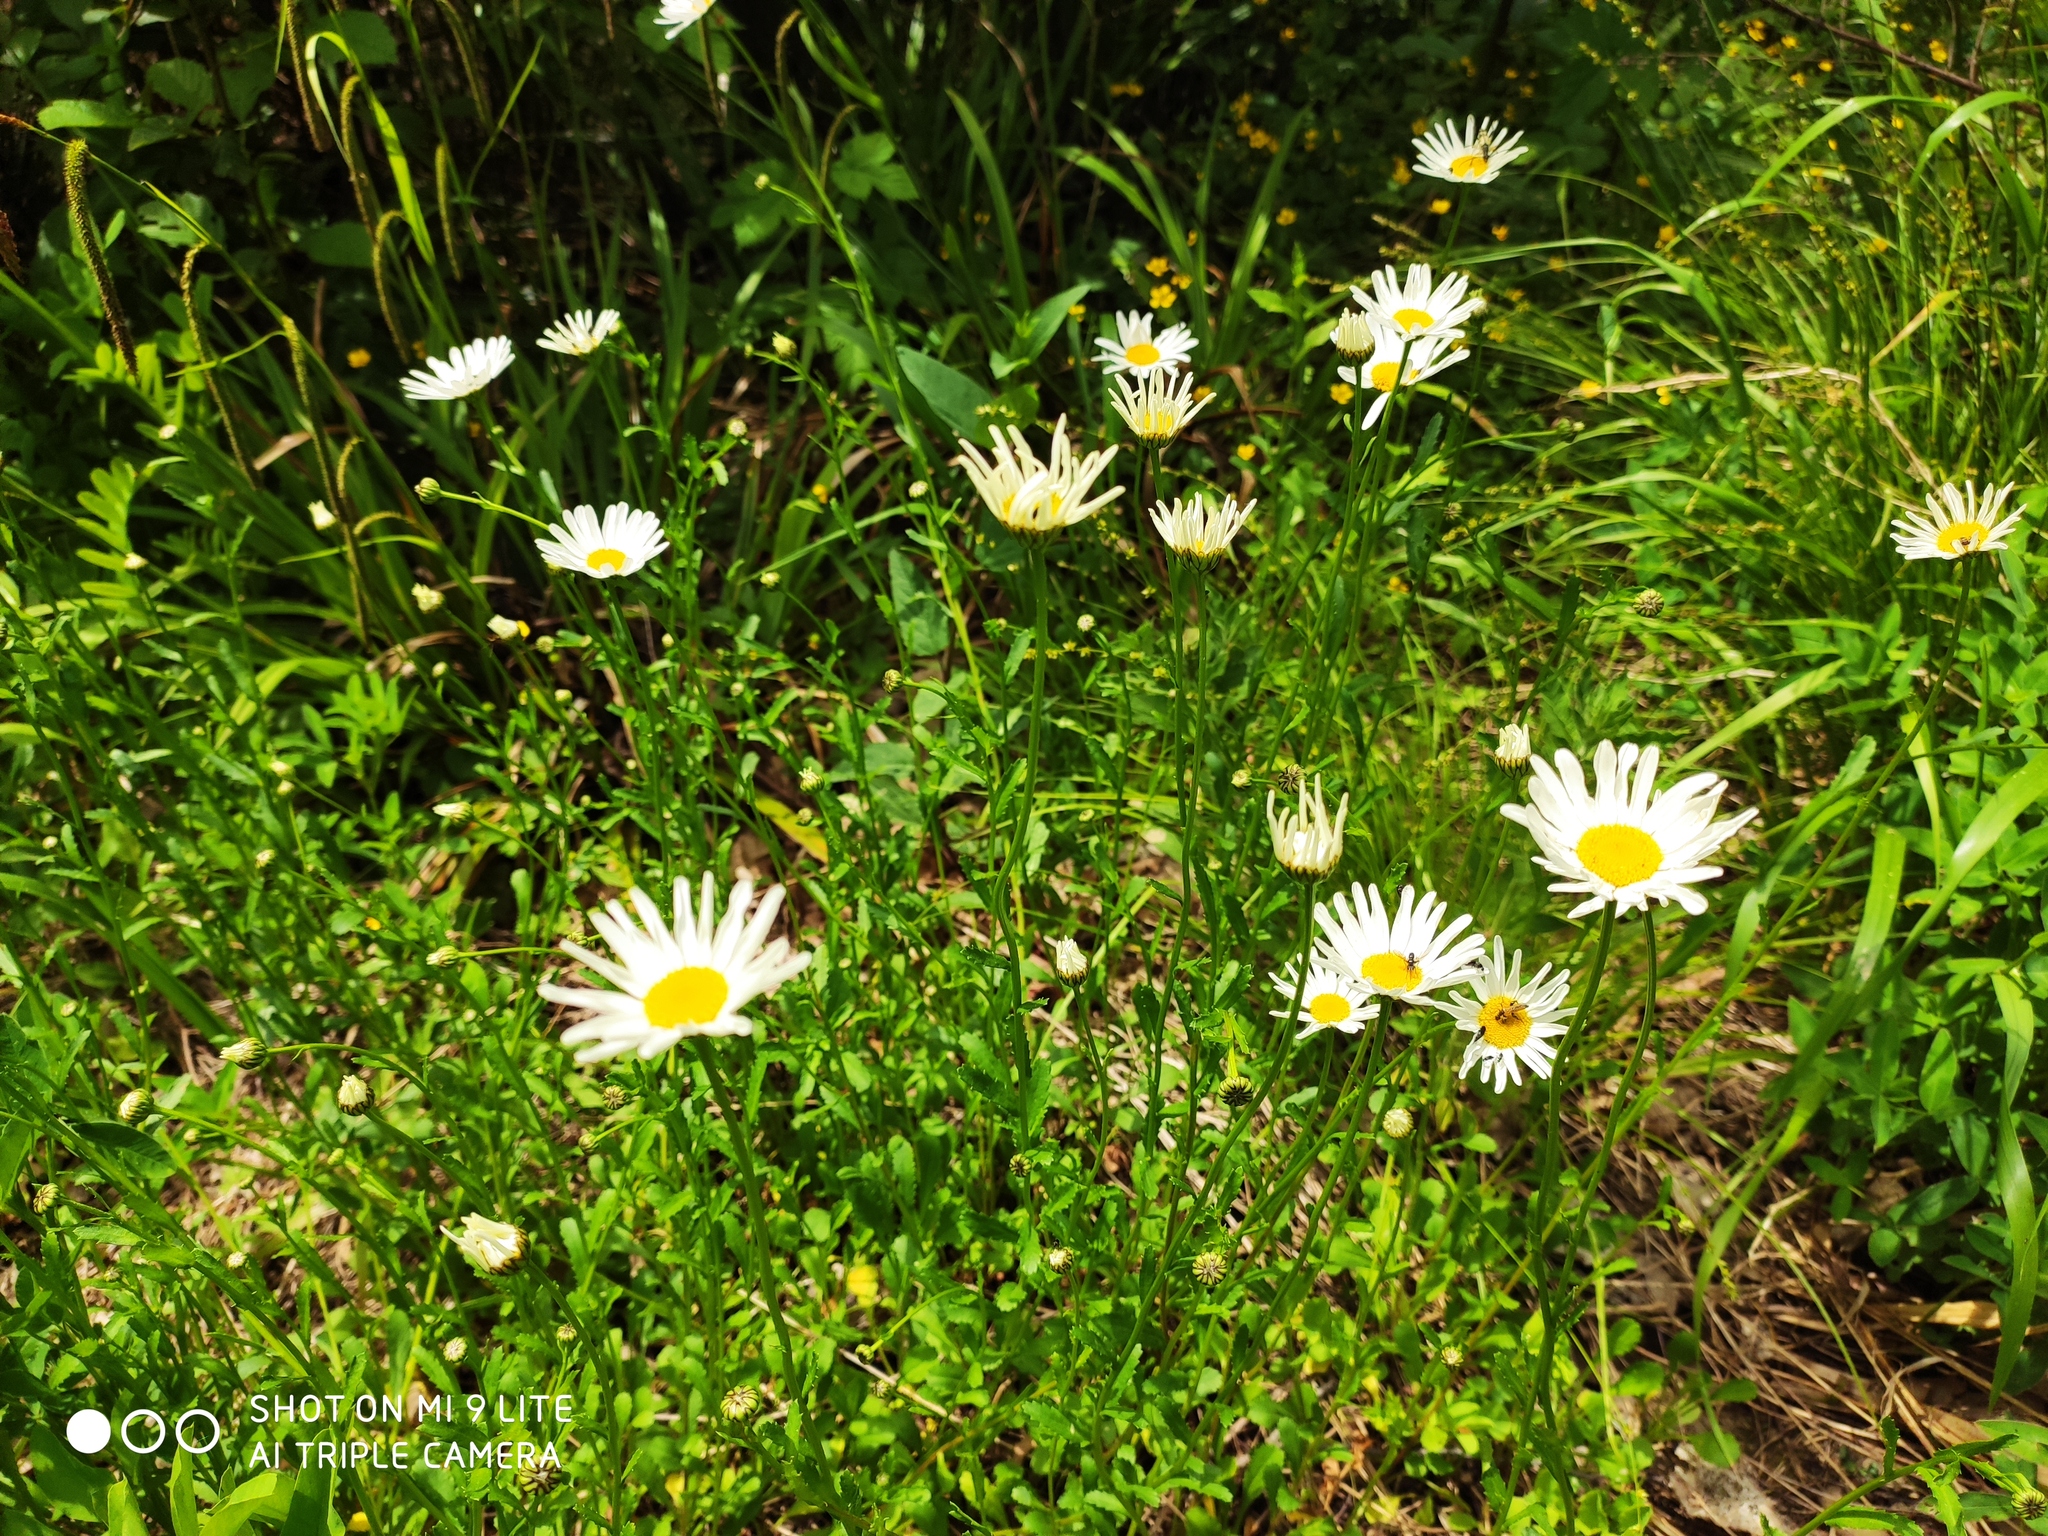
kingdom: Plantae
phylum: Tracheophyta
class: Magnoliopsida
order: Asterales
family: Asteraceae
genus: Leucanthemum
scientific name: Leucanthemum vulgare
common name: Oxeye daisy
